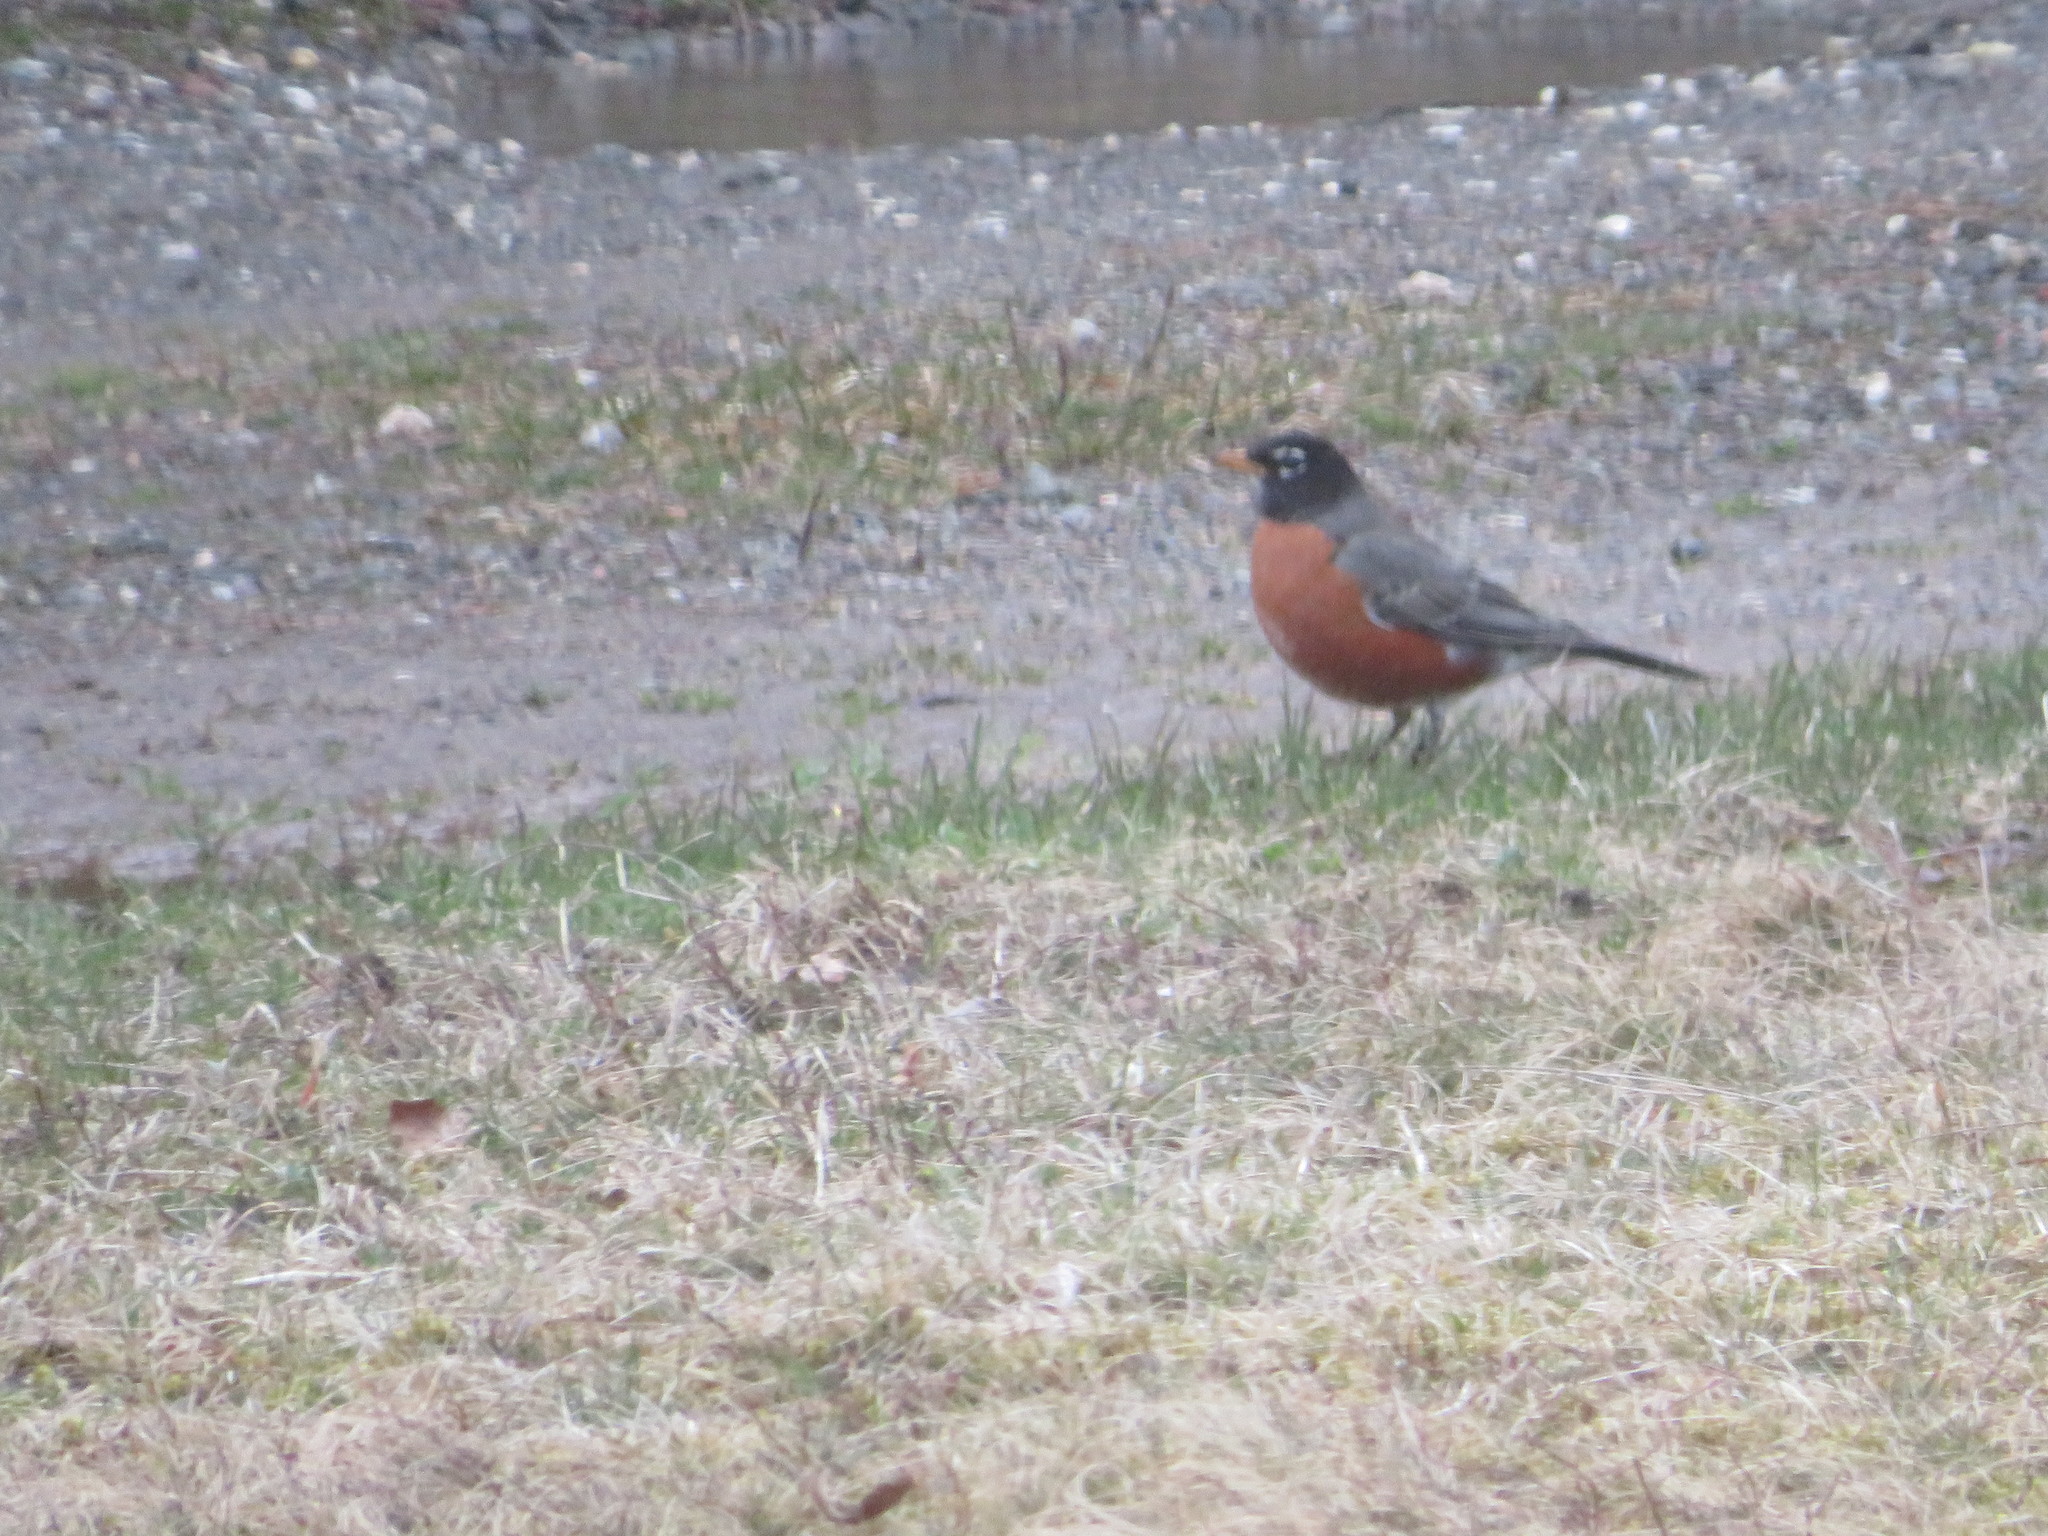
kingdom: Animalia
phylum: Chordata
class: Aves
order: Passeriformes
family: Turdidae
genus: Turdus
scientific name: Turdus migratorius
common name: American robin
